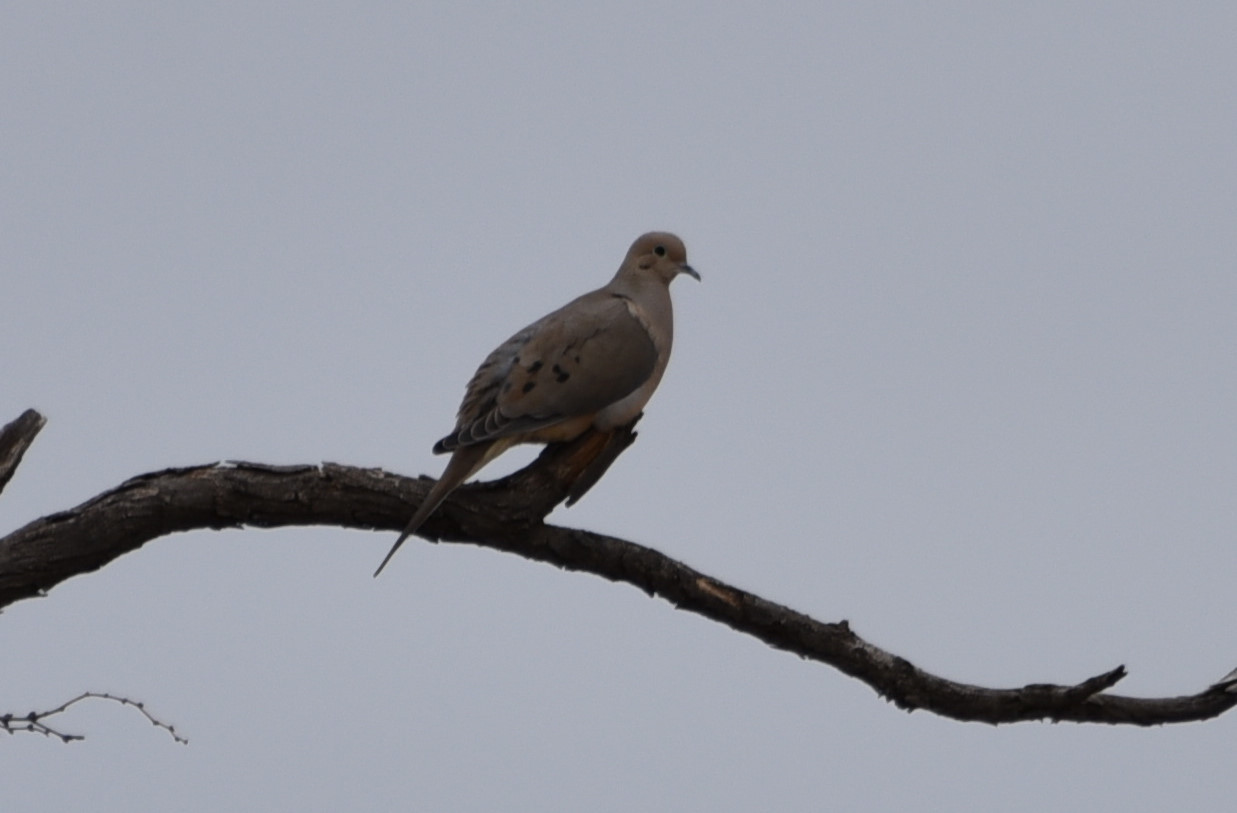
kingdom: Animalia
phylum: Chordata
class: Aves
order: Columbiformes
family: Columbidae
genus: Zenaida
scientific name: Zenaida macroura
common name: Mourning dove
